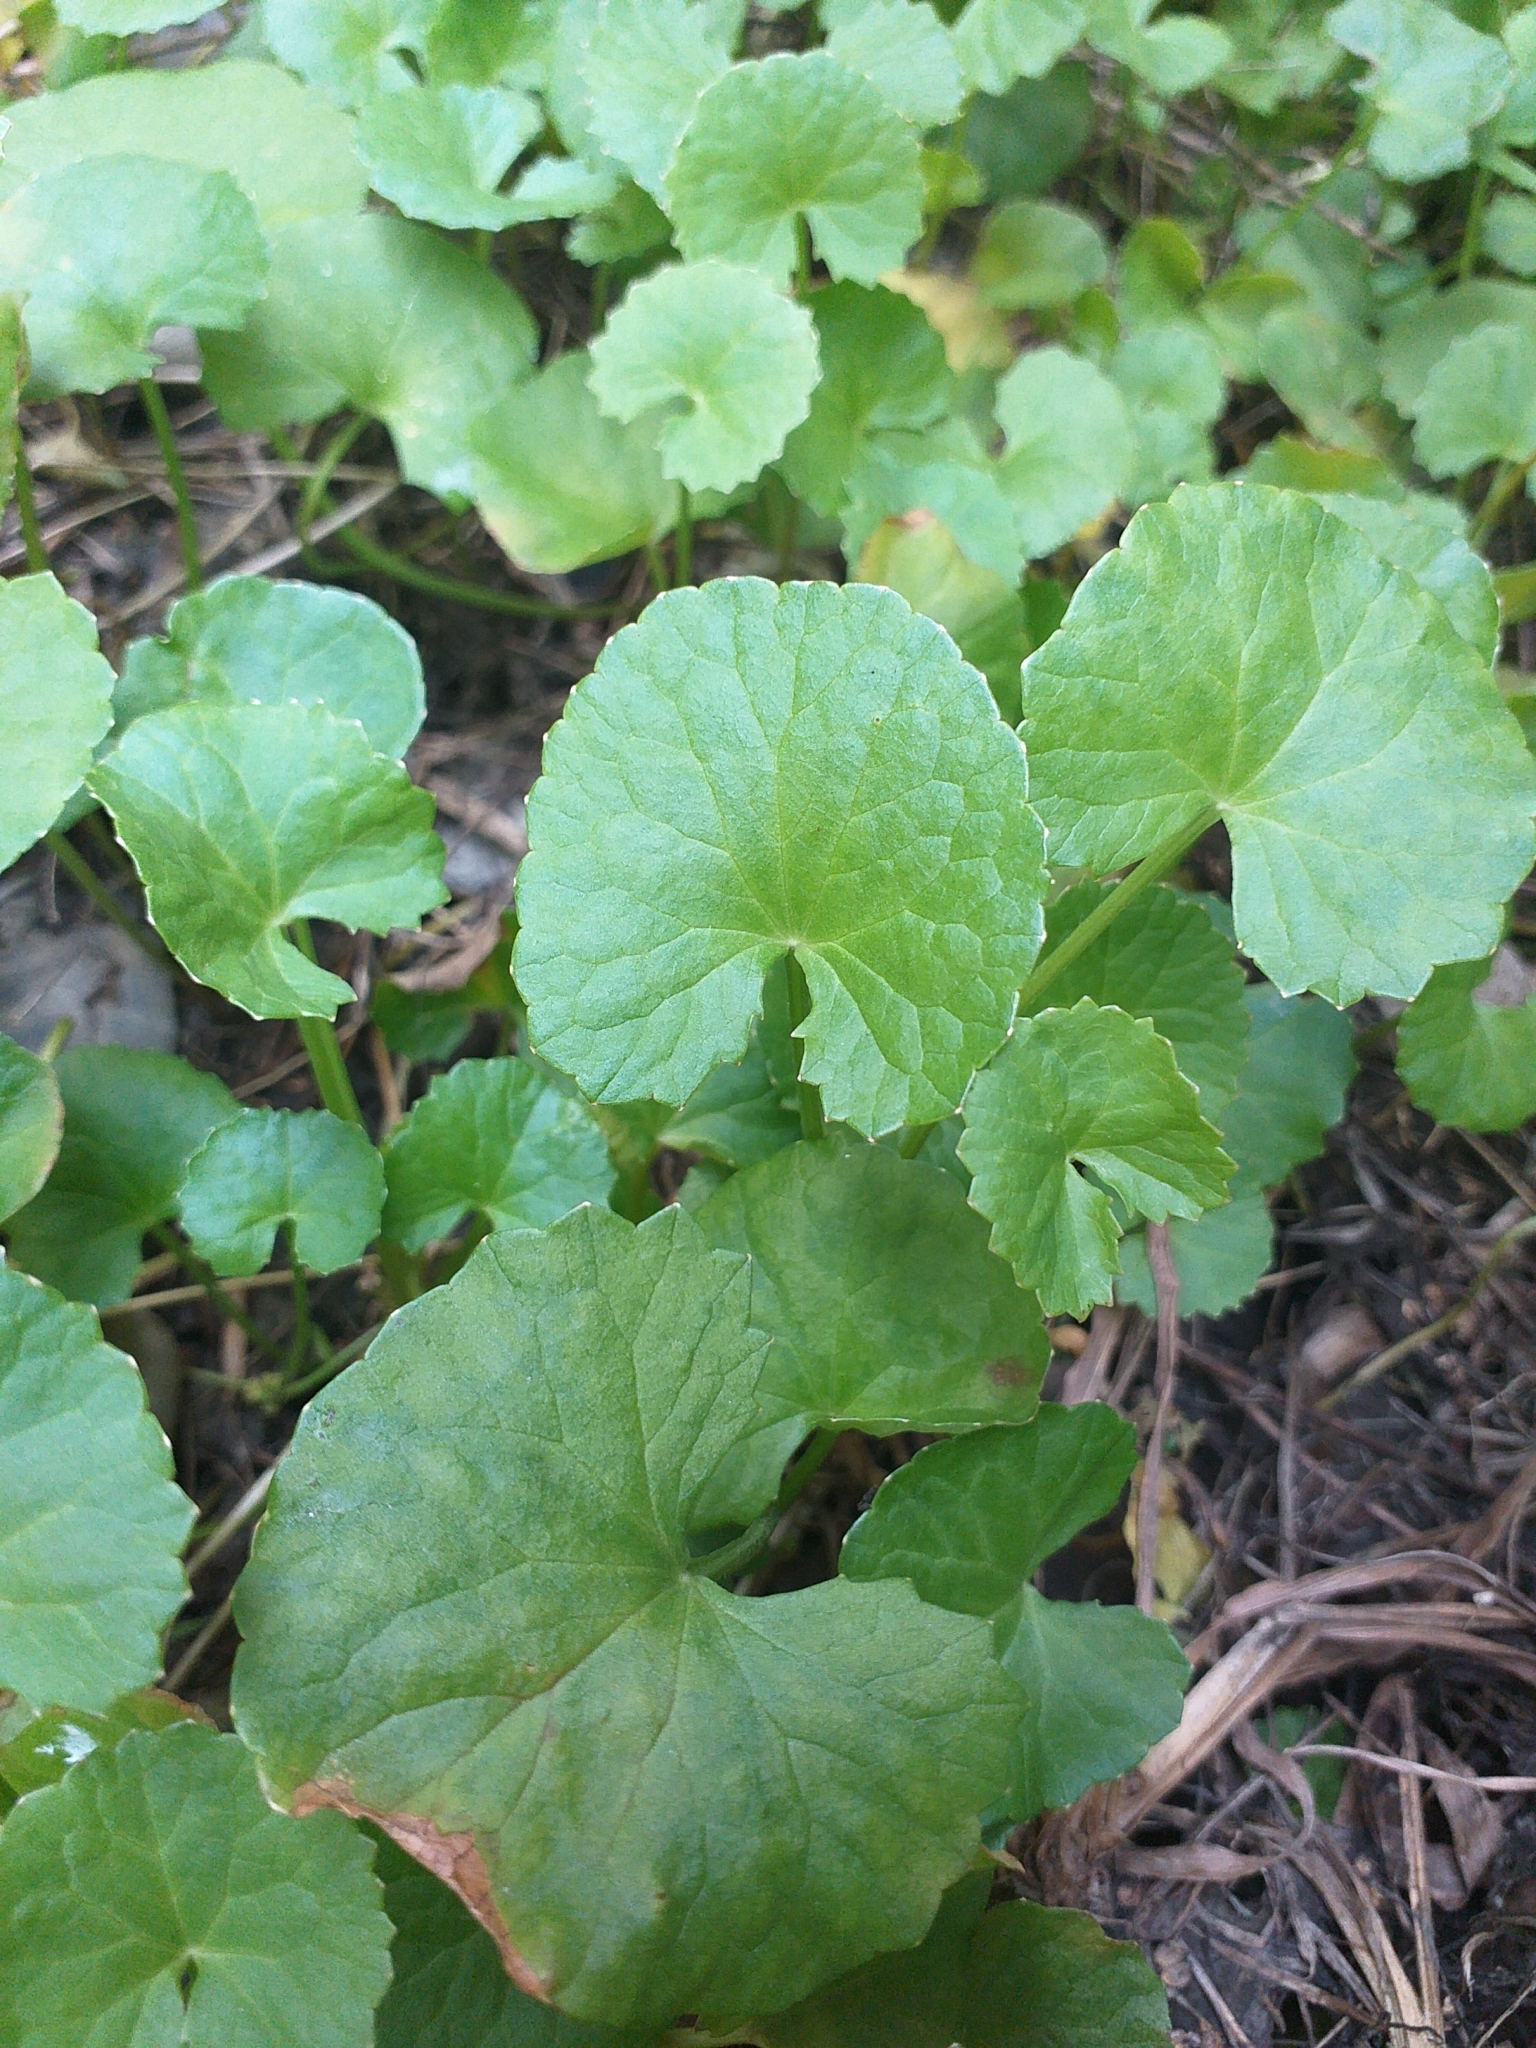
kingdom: Plantae
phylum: Tracheophyta
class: Magnoliopsida
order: Apiales
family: Apiaceae
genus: Centella
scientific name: Centella asiatica
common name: Spadeleaf
